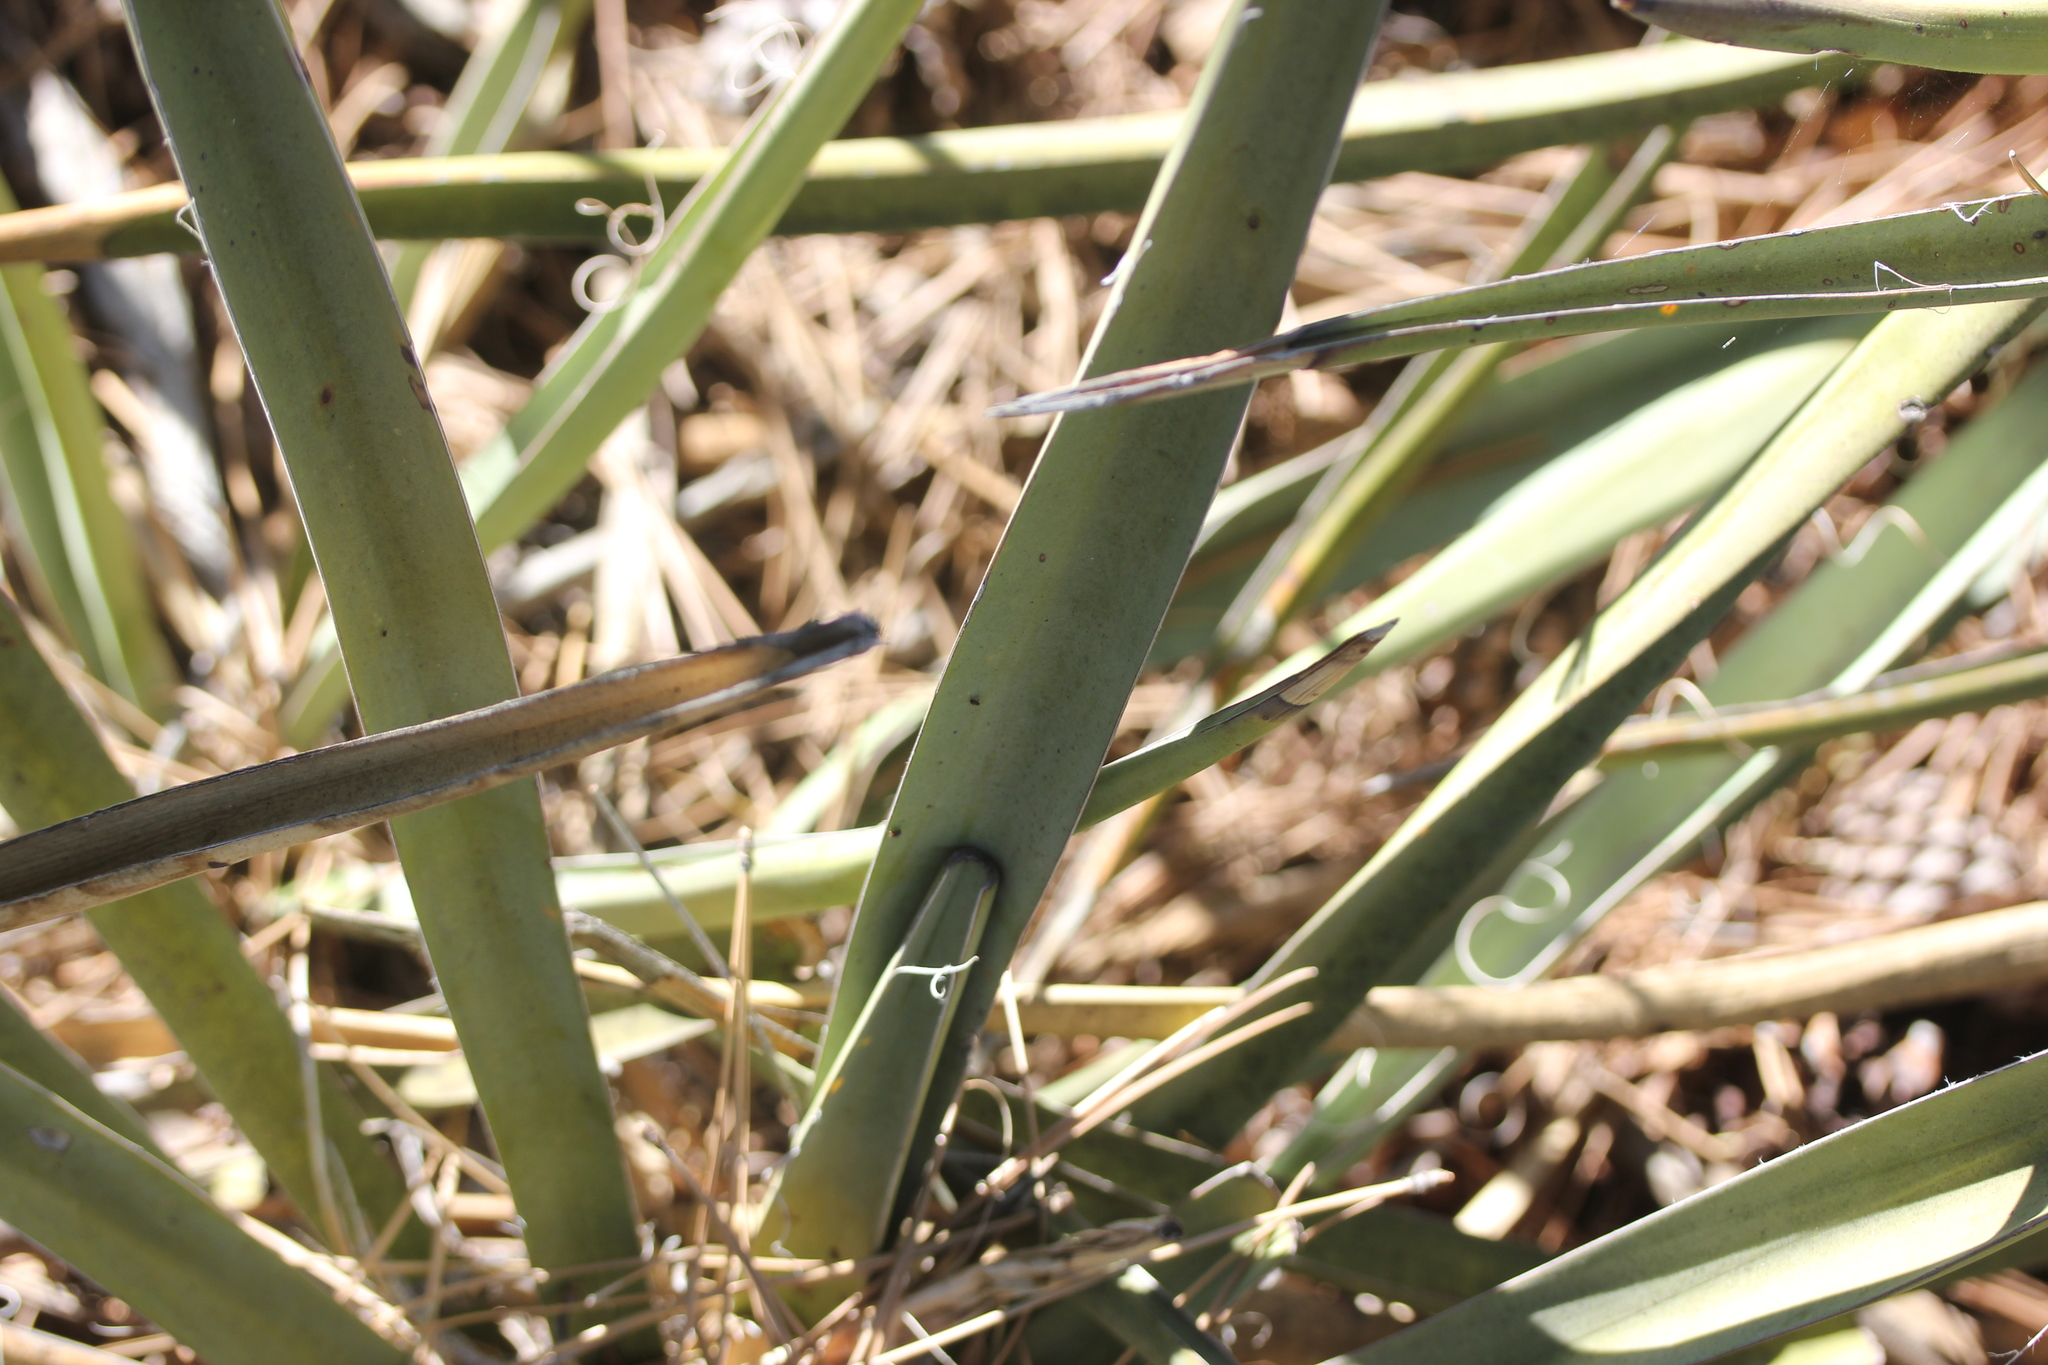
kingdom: Plantae
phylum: Tracheophyta
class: Liliopsida
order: Asparagales
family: Asparagaceae
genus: Yucca
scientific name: Yucca baccata
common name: Banana yucca
